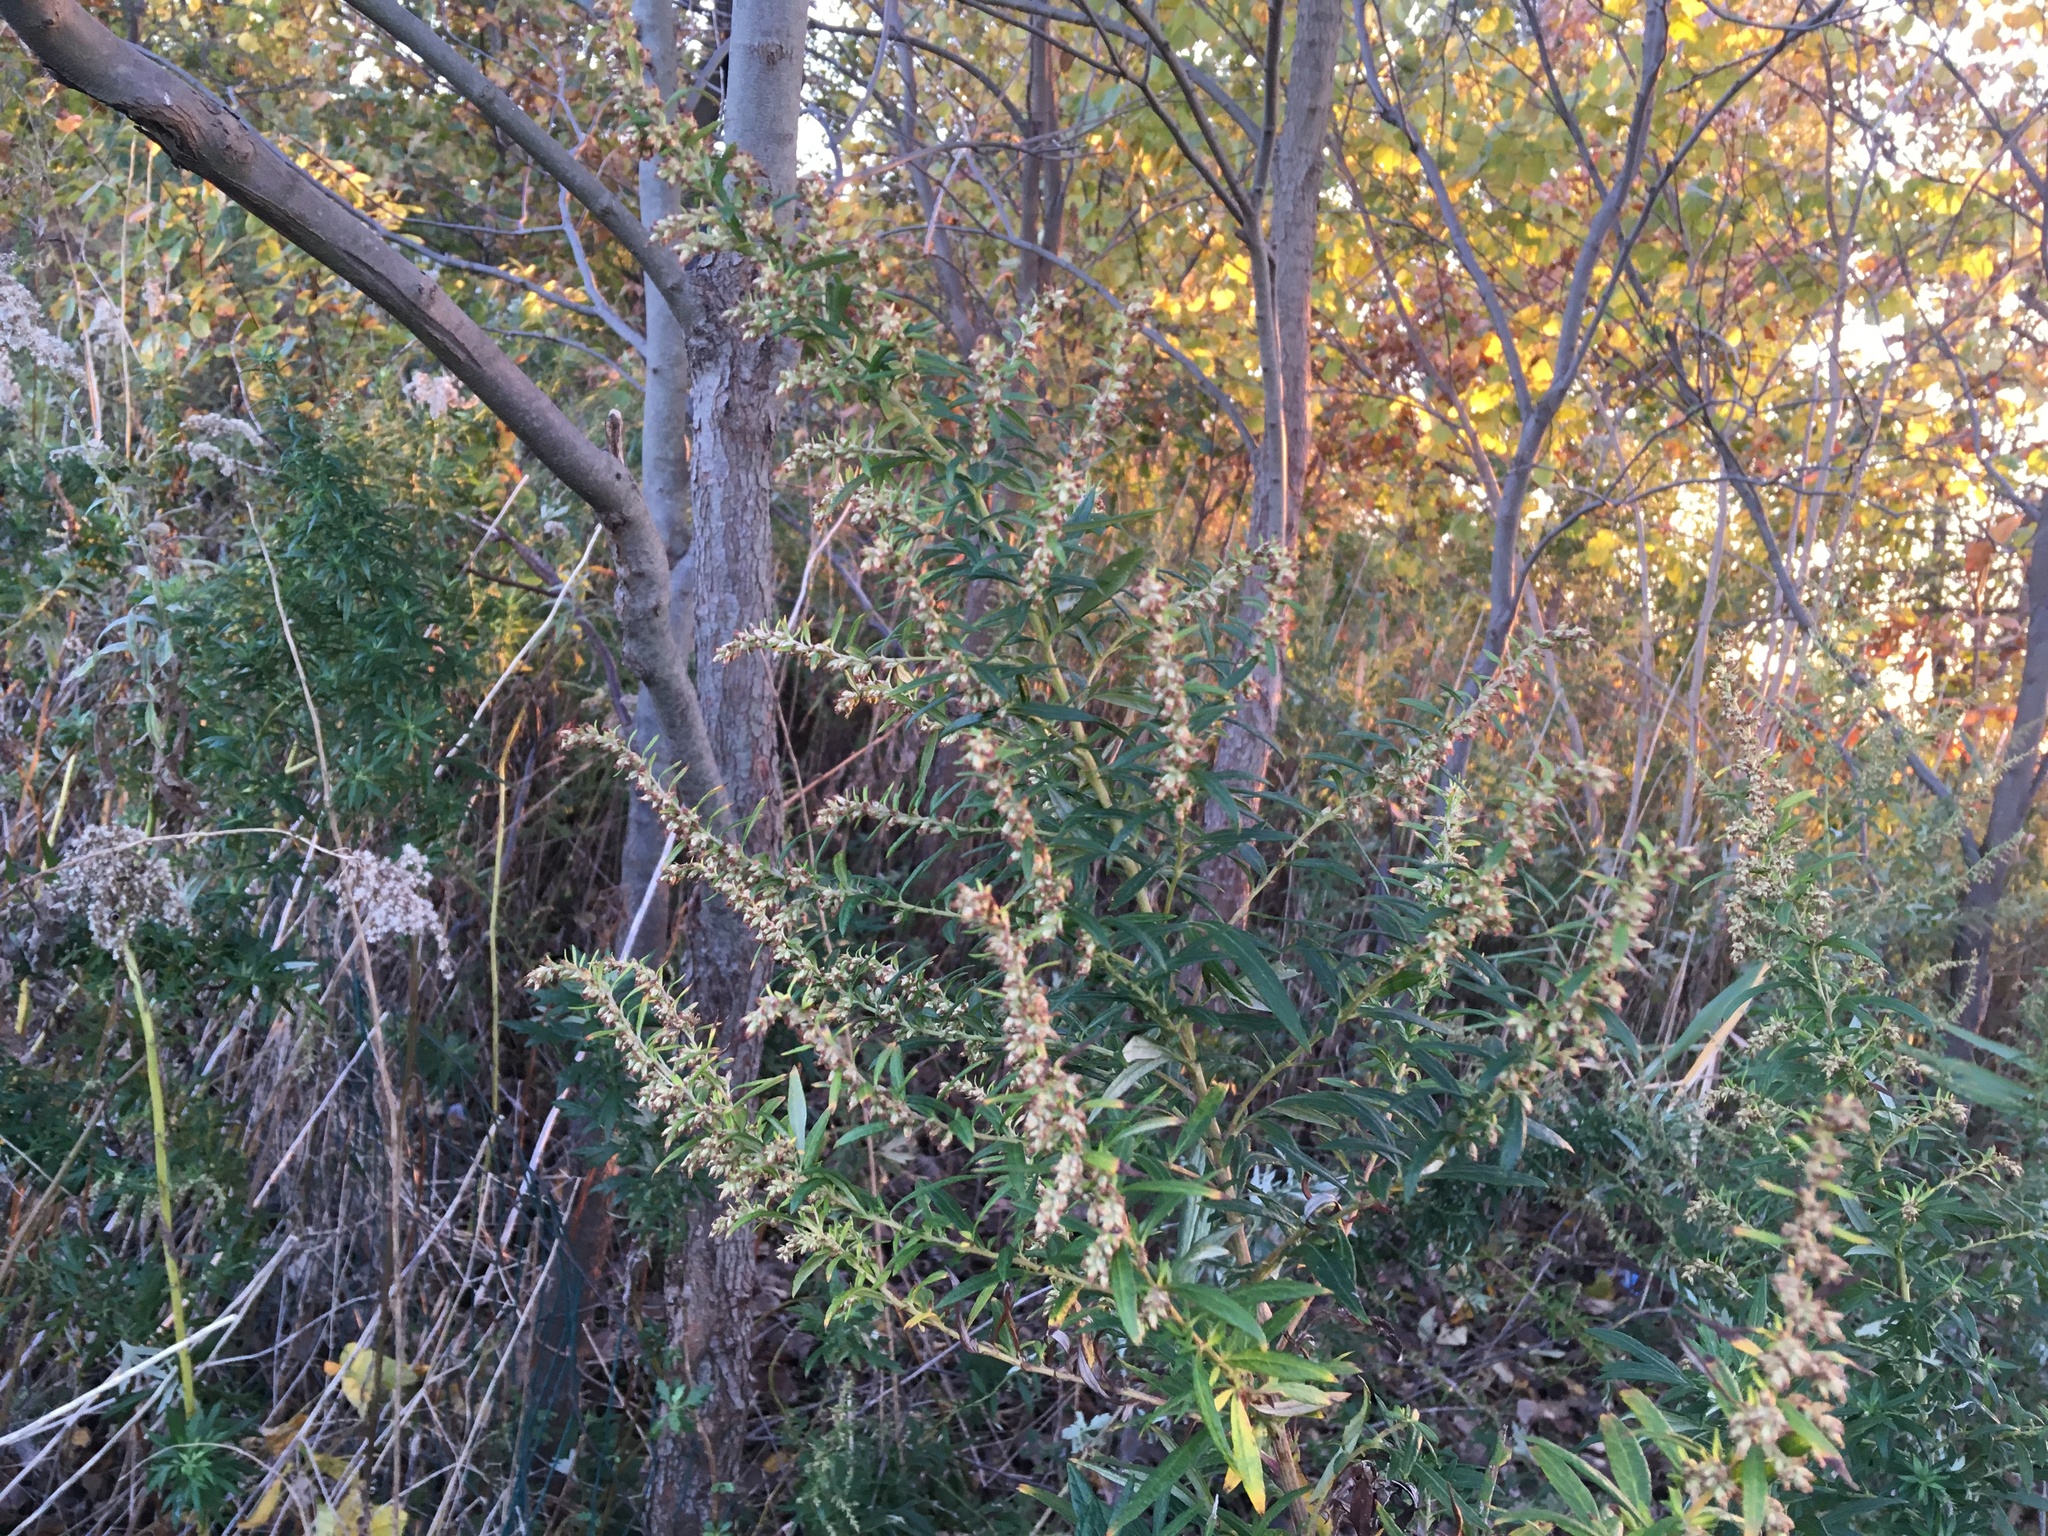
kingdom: Plantae
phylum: Tracheophyta
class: Magnoliopsida
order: Asterales
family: Asteraceae
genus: Artemisia
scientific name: Artemisia vulgaris
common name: Mugwort
